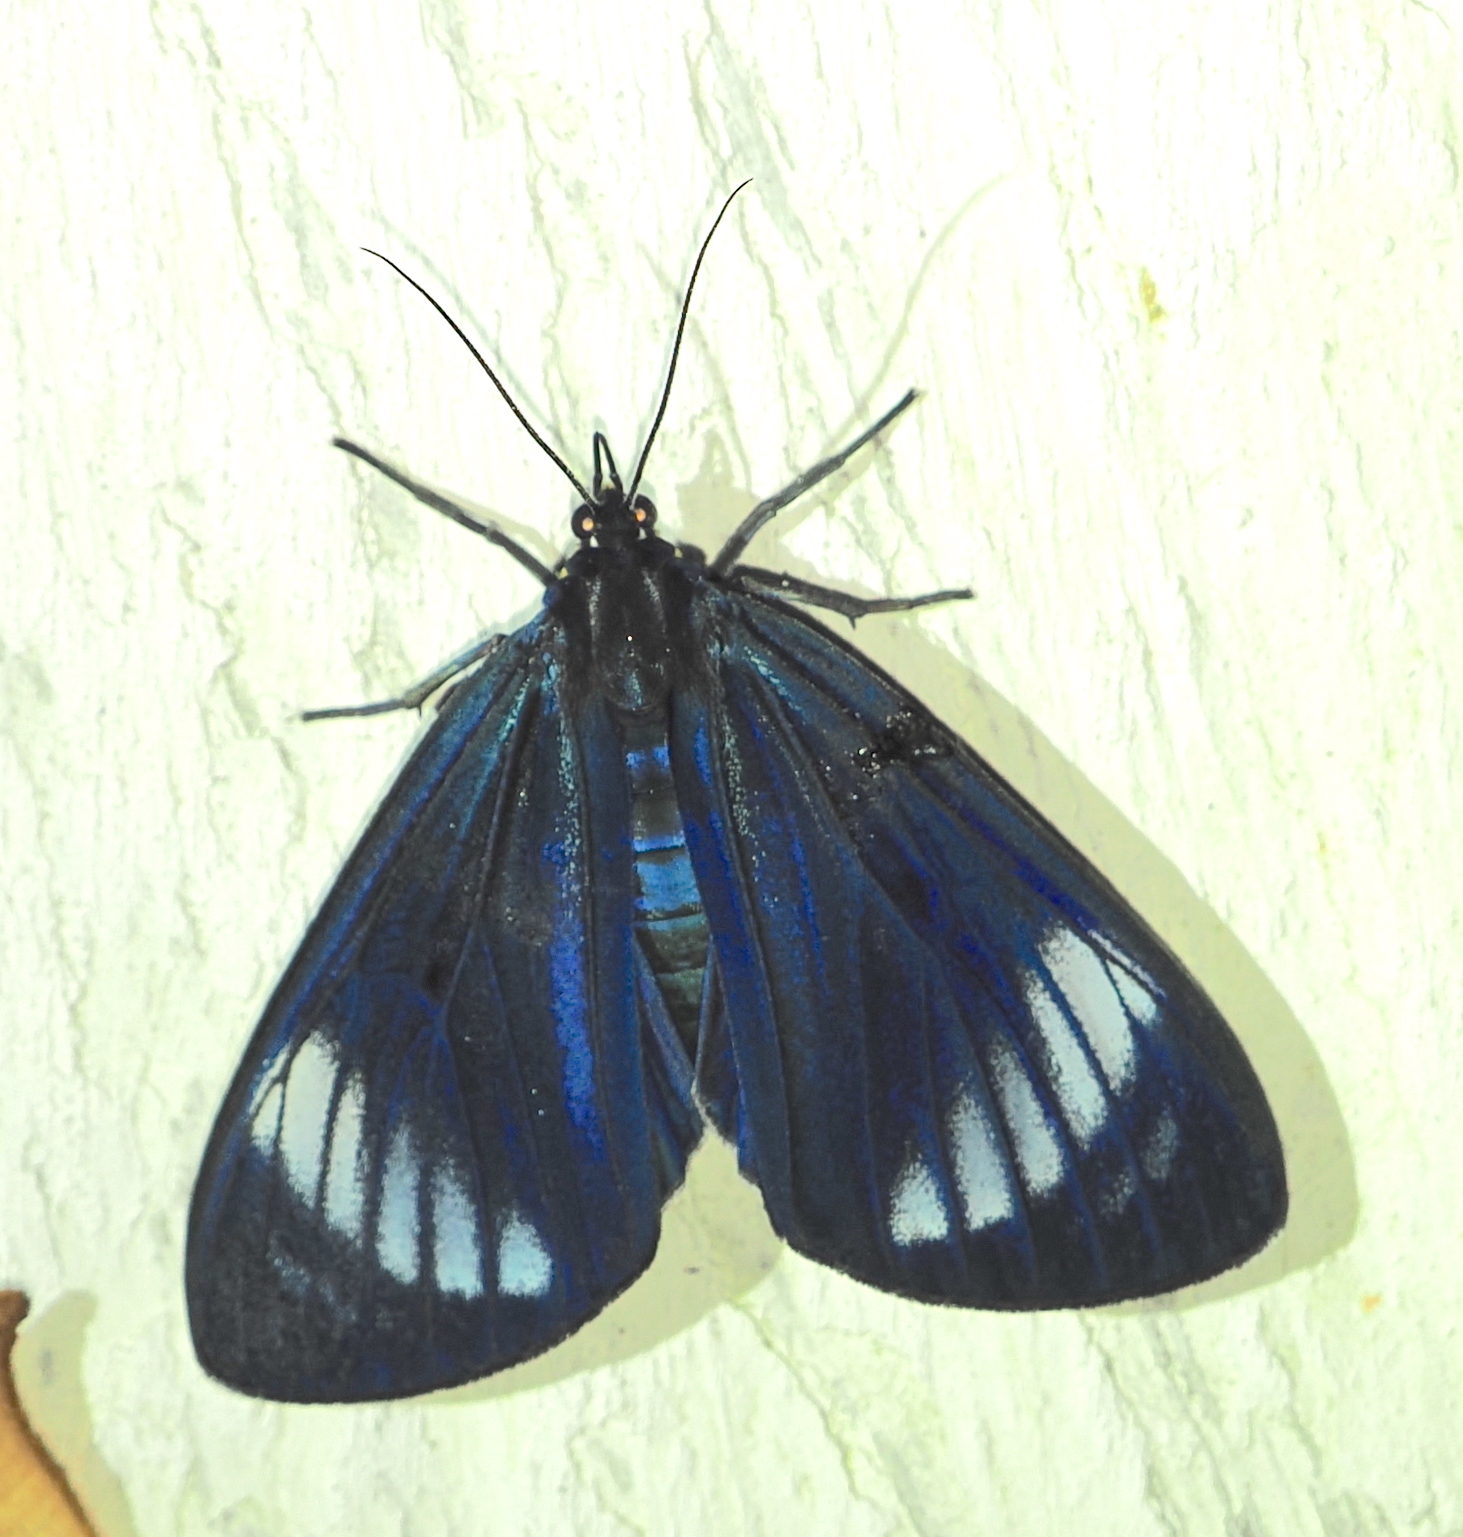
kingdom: Animalia
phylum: Arthropoda
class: Insecta
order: Lepidoptera
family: Erebidae
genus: Hypocrita
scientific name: Hypocrita Eucyane celadon
